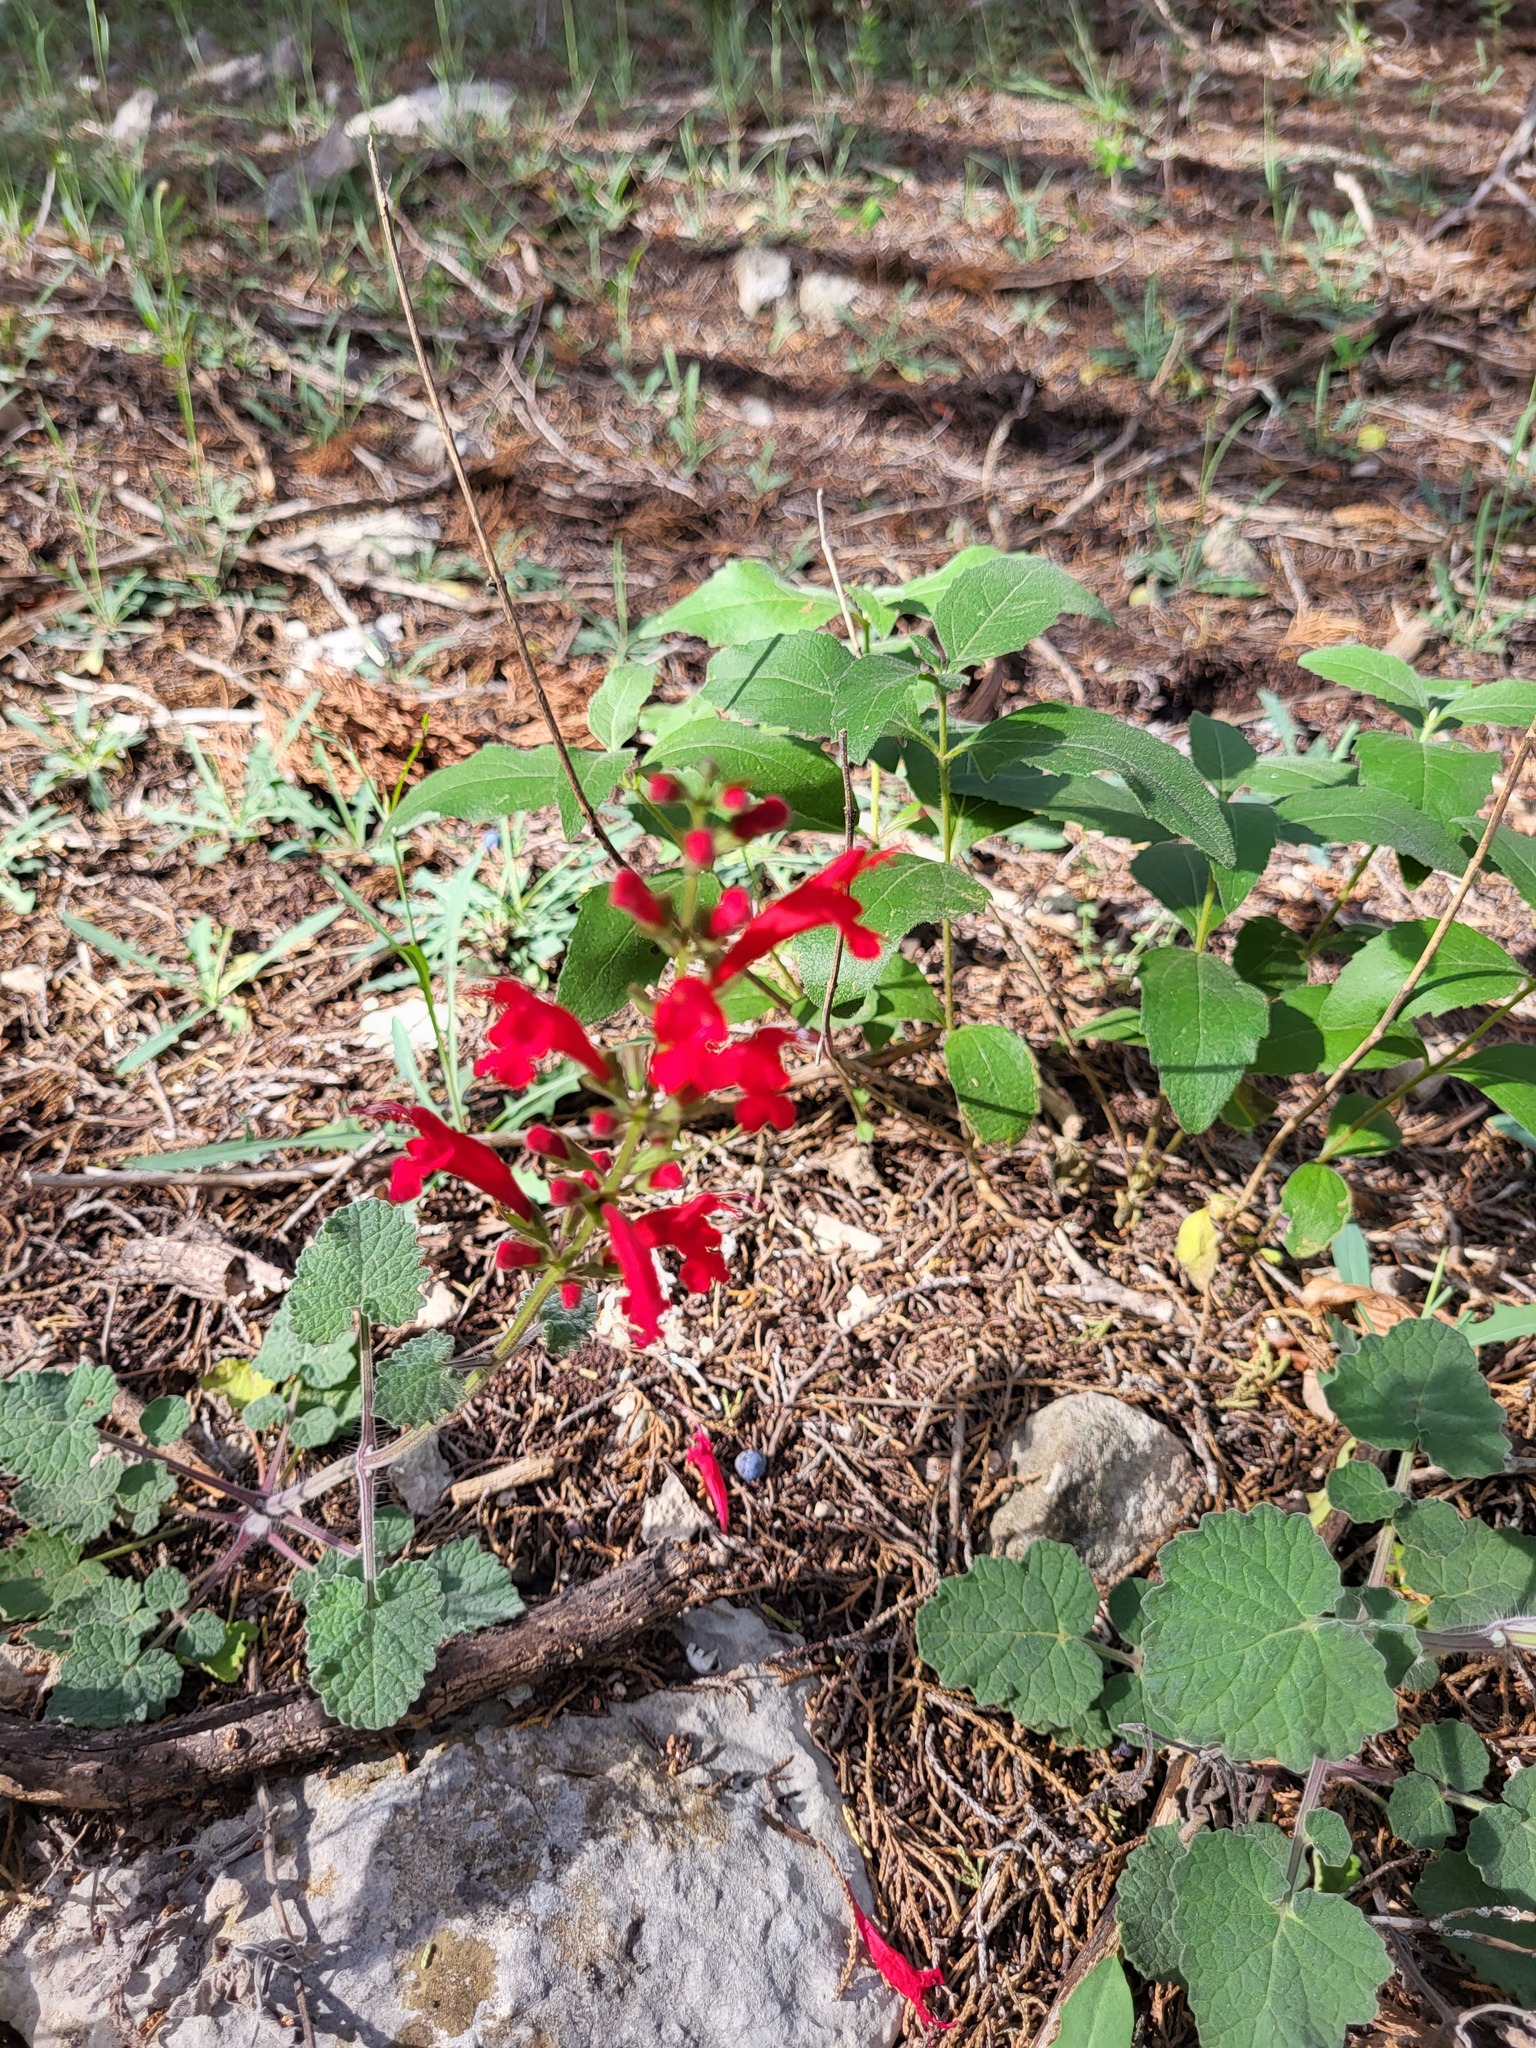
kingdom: Plantae
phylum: Tracheophyta
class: Magnoliopsida
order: Lamiales
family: Lamiaceae
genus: Salvia
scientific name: Salvia roemeriana
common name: Cedar sage
